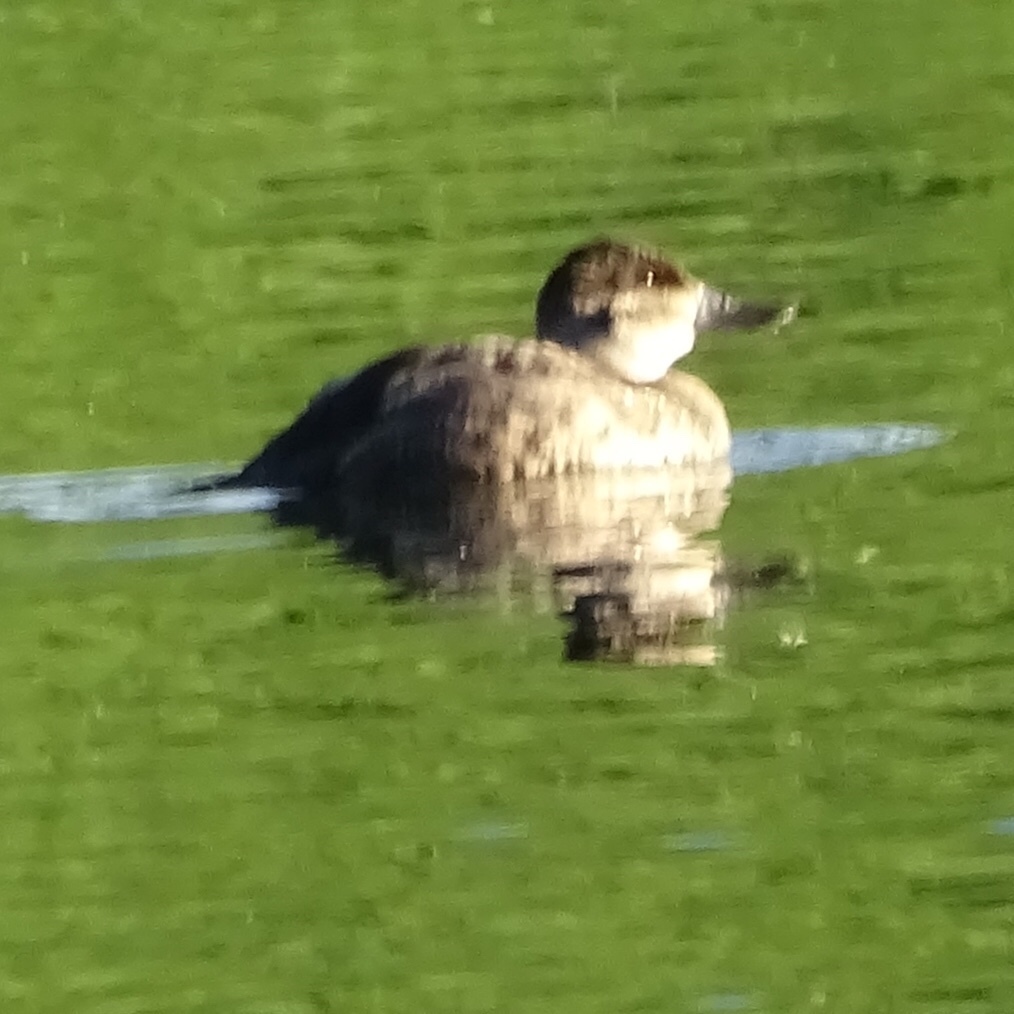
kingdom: Animalia
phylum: Chordata
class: Aves
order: Anseriformes
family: Anatidae
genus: Oxyura
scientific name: Oxyura jamaicensis
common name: Ruddy duck
